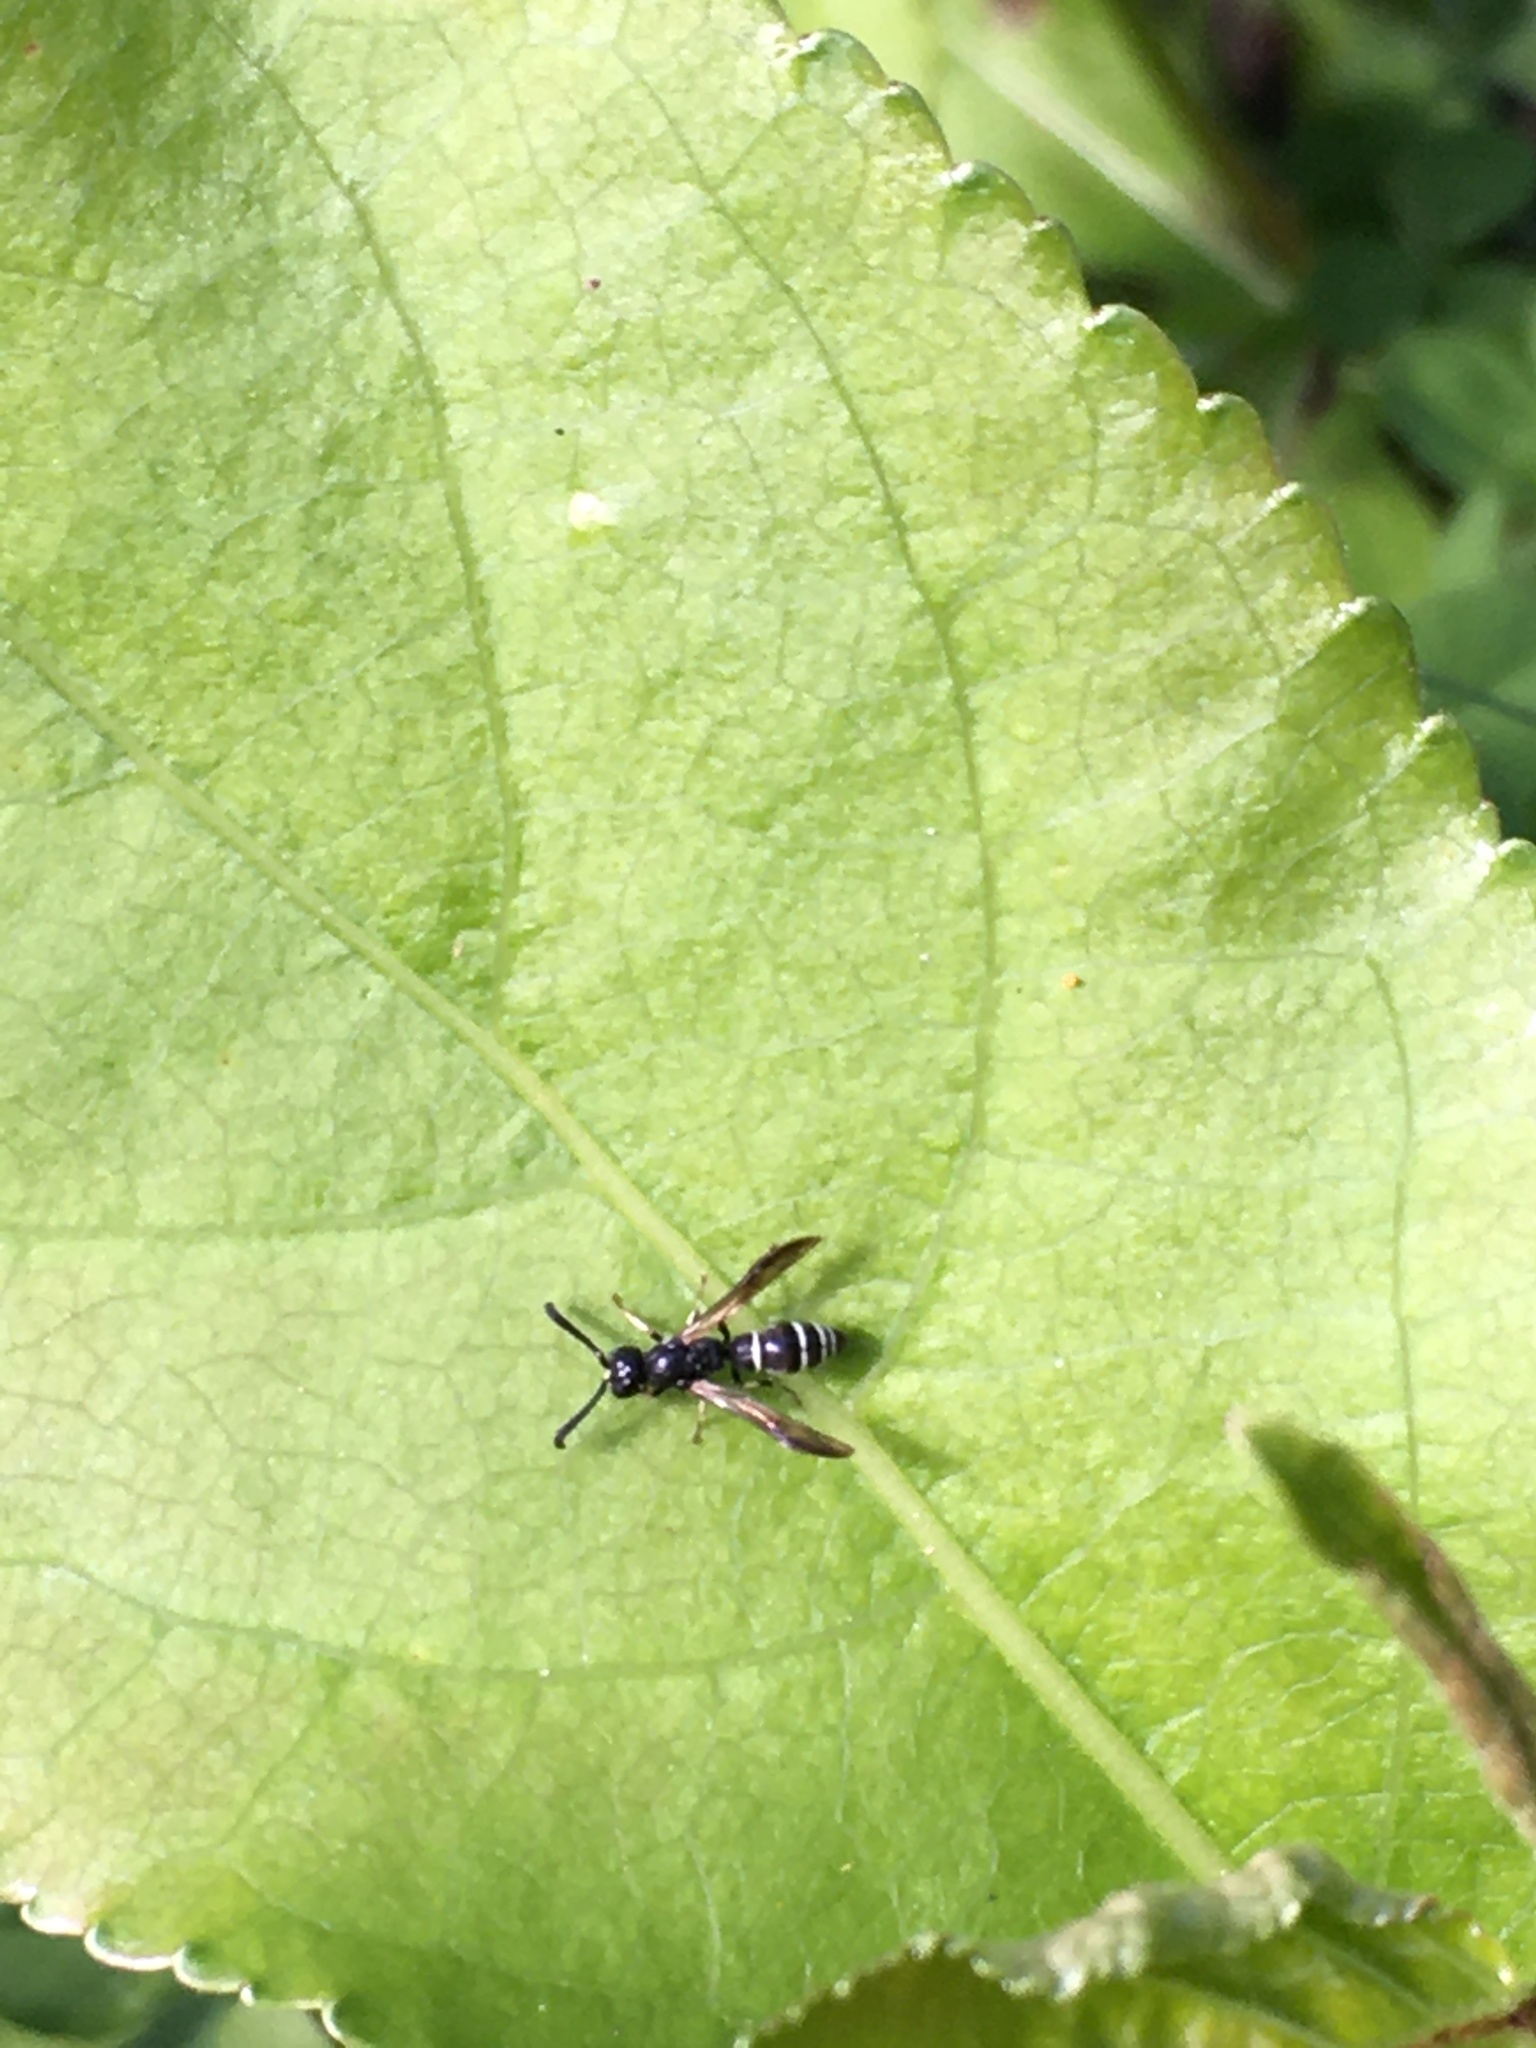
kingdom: Animalia
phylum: Arthropoda
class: Insecta
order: Hymenoptera
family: Eumenidae
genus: Symmorphus
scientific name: Symmorphus
